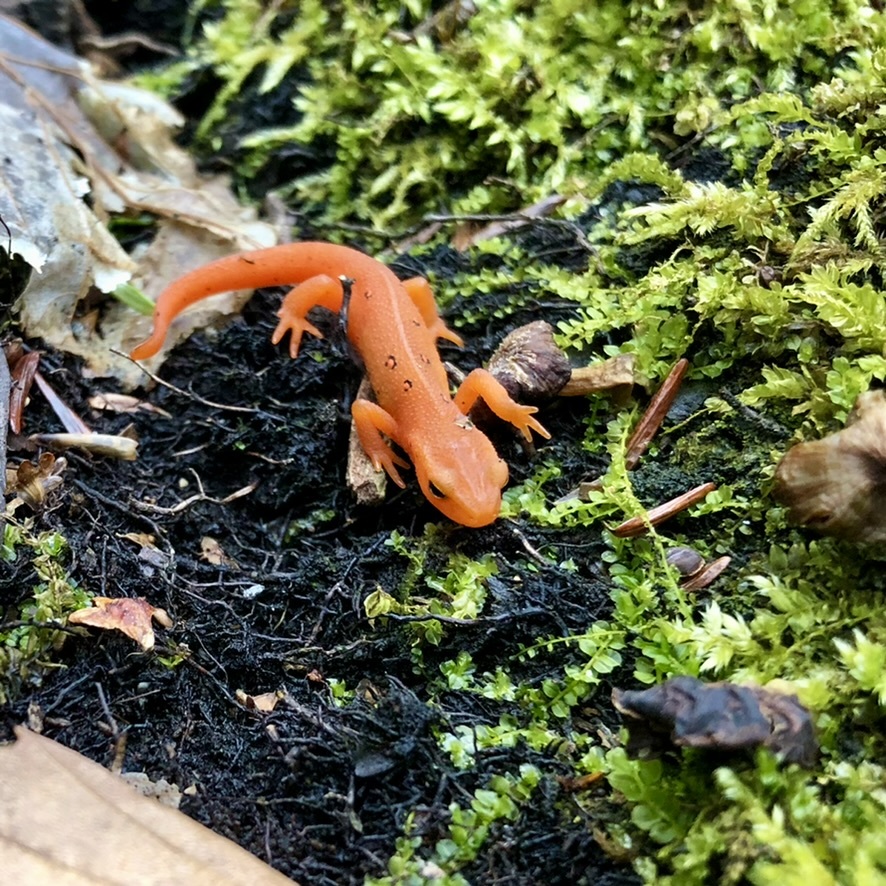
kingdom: Animalia
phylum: Chordata
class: Amphibia
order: Caudata
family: Salamandridae
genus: Notophthalmus
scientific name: Notophthalmus viridescens
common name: Eastern newt
